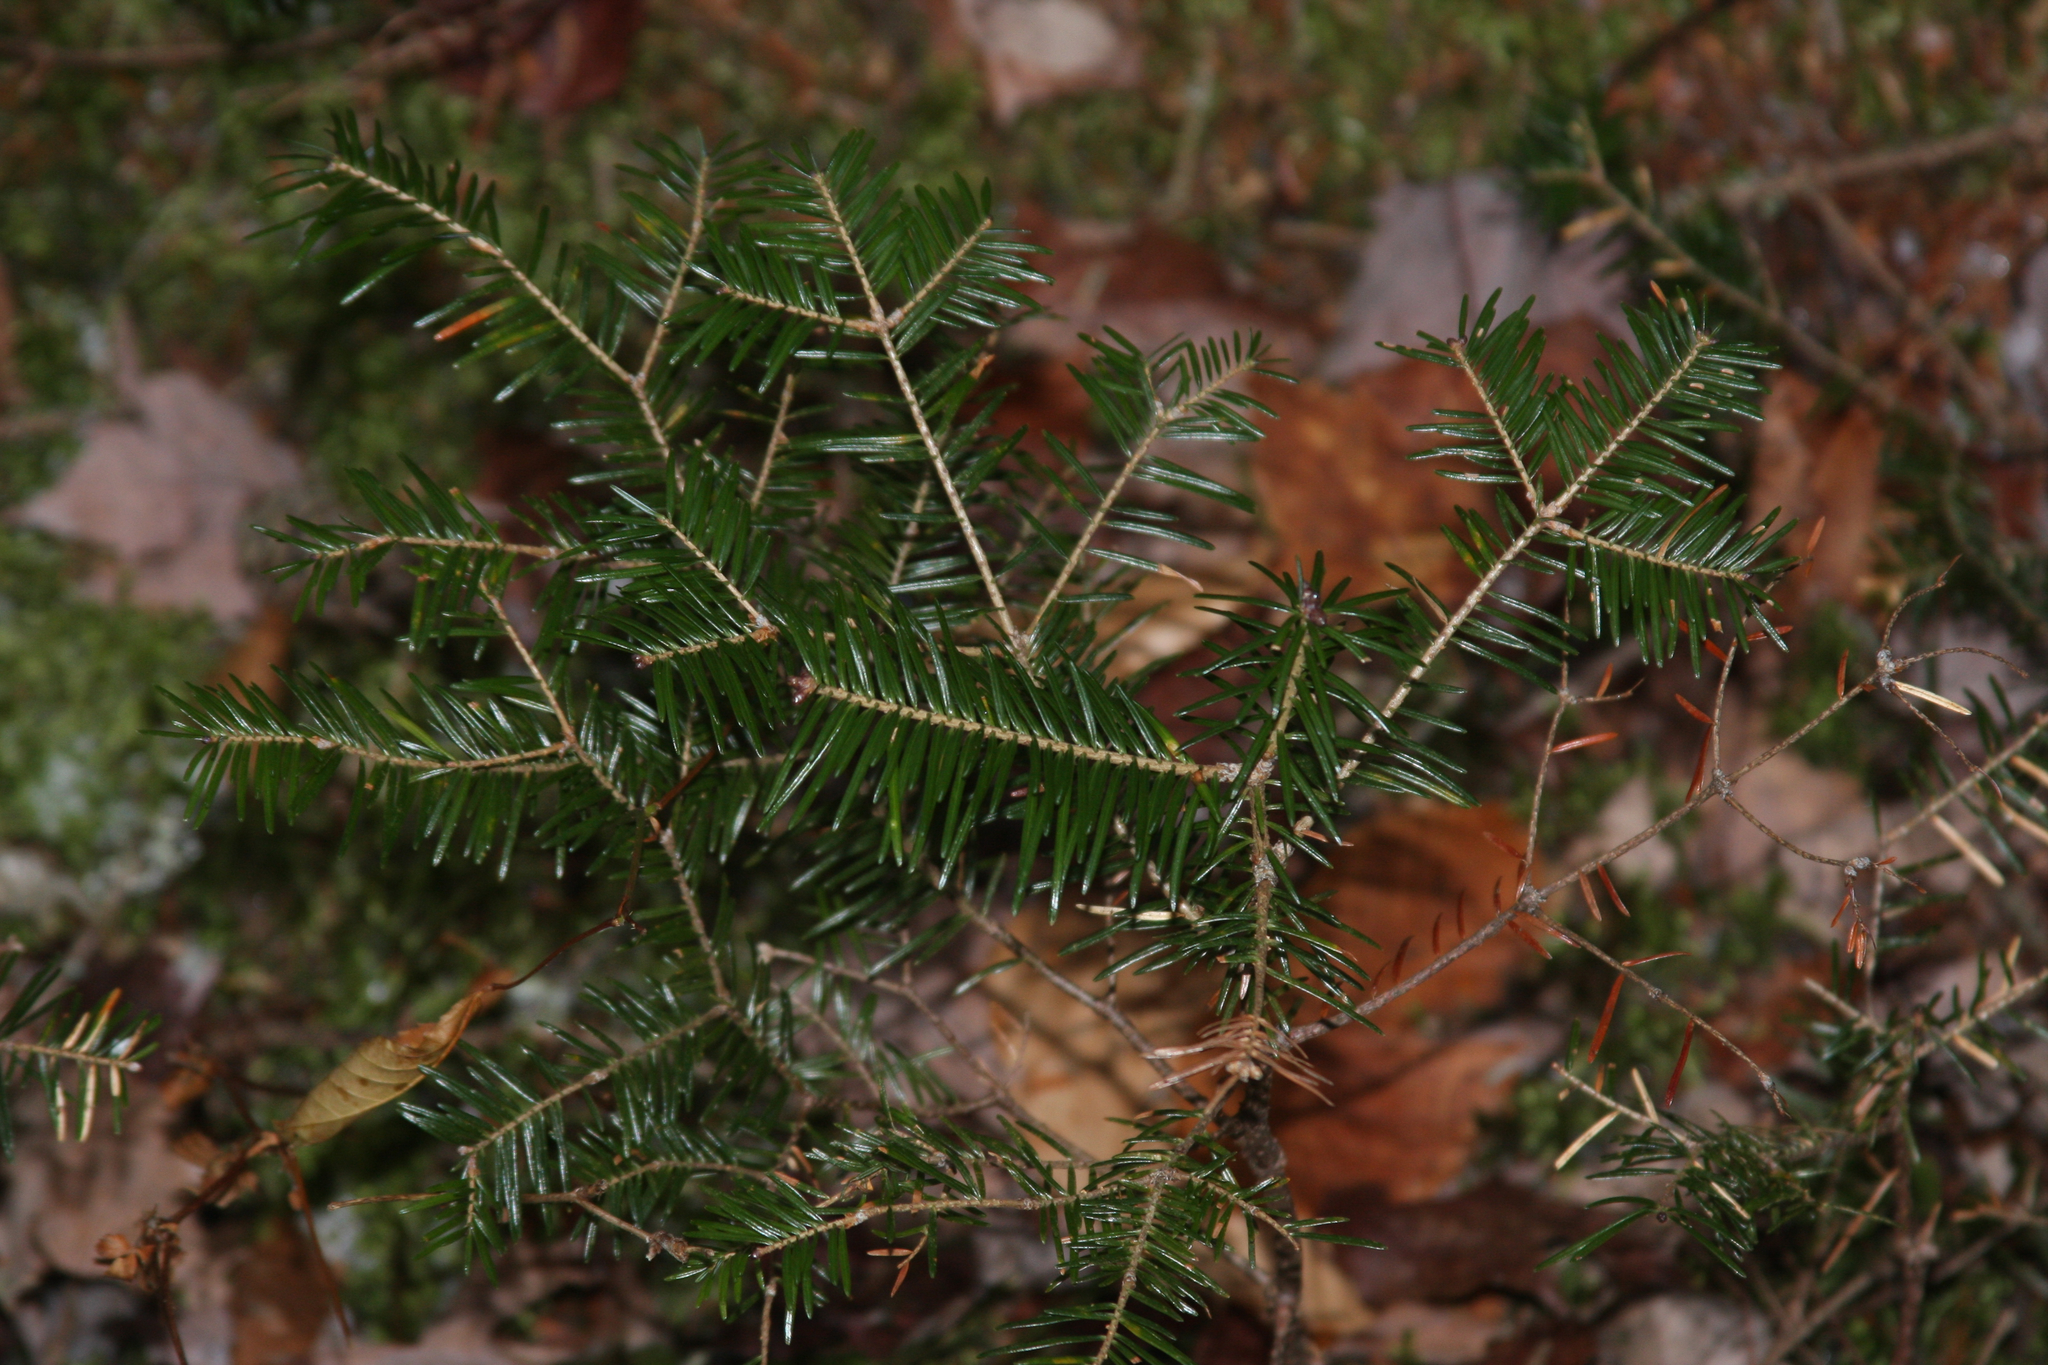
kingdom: Plantae
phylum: Tracheophyta
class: Pinopsida
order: Pinales
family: Pinaceae
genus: Abies
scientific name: Abies balsamea
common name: Balsam fir
